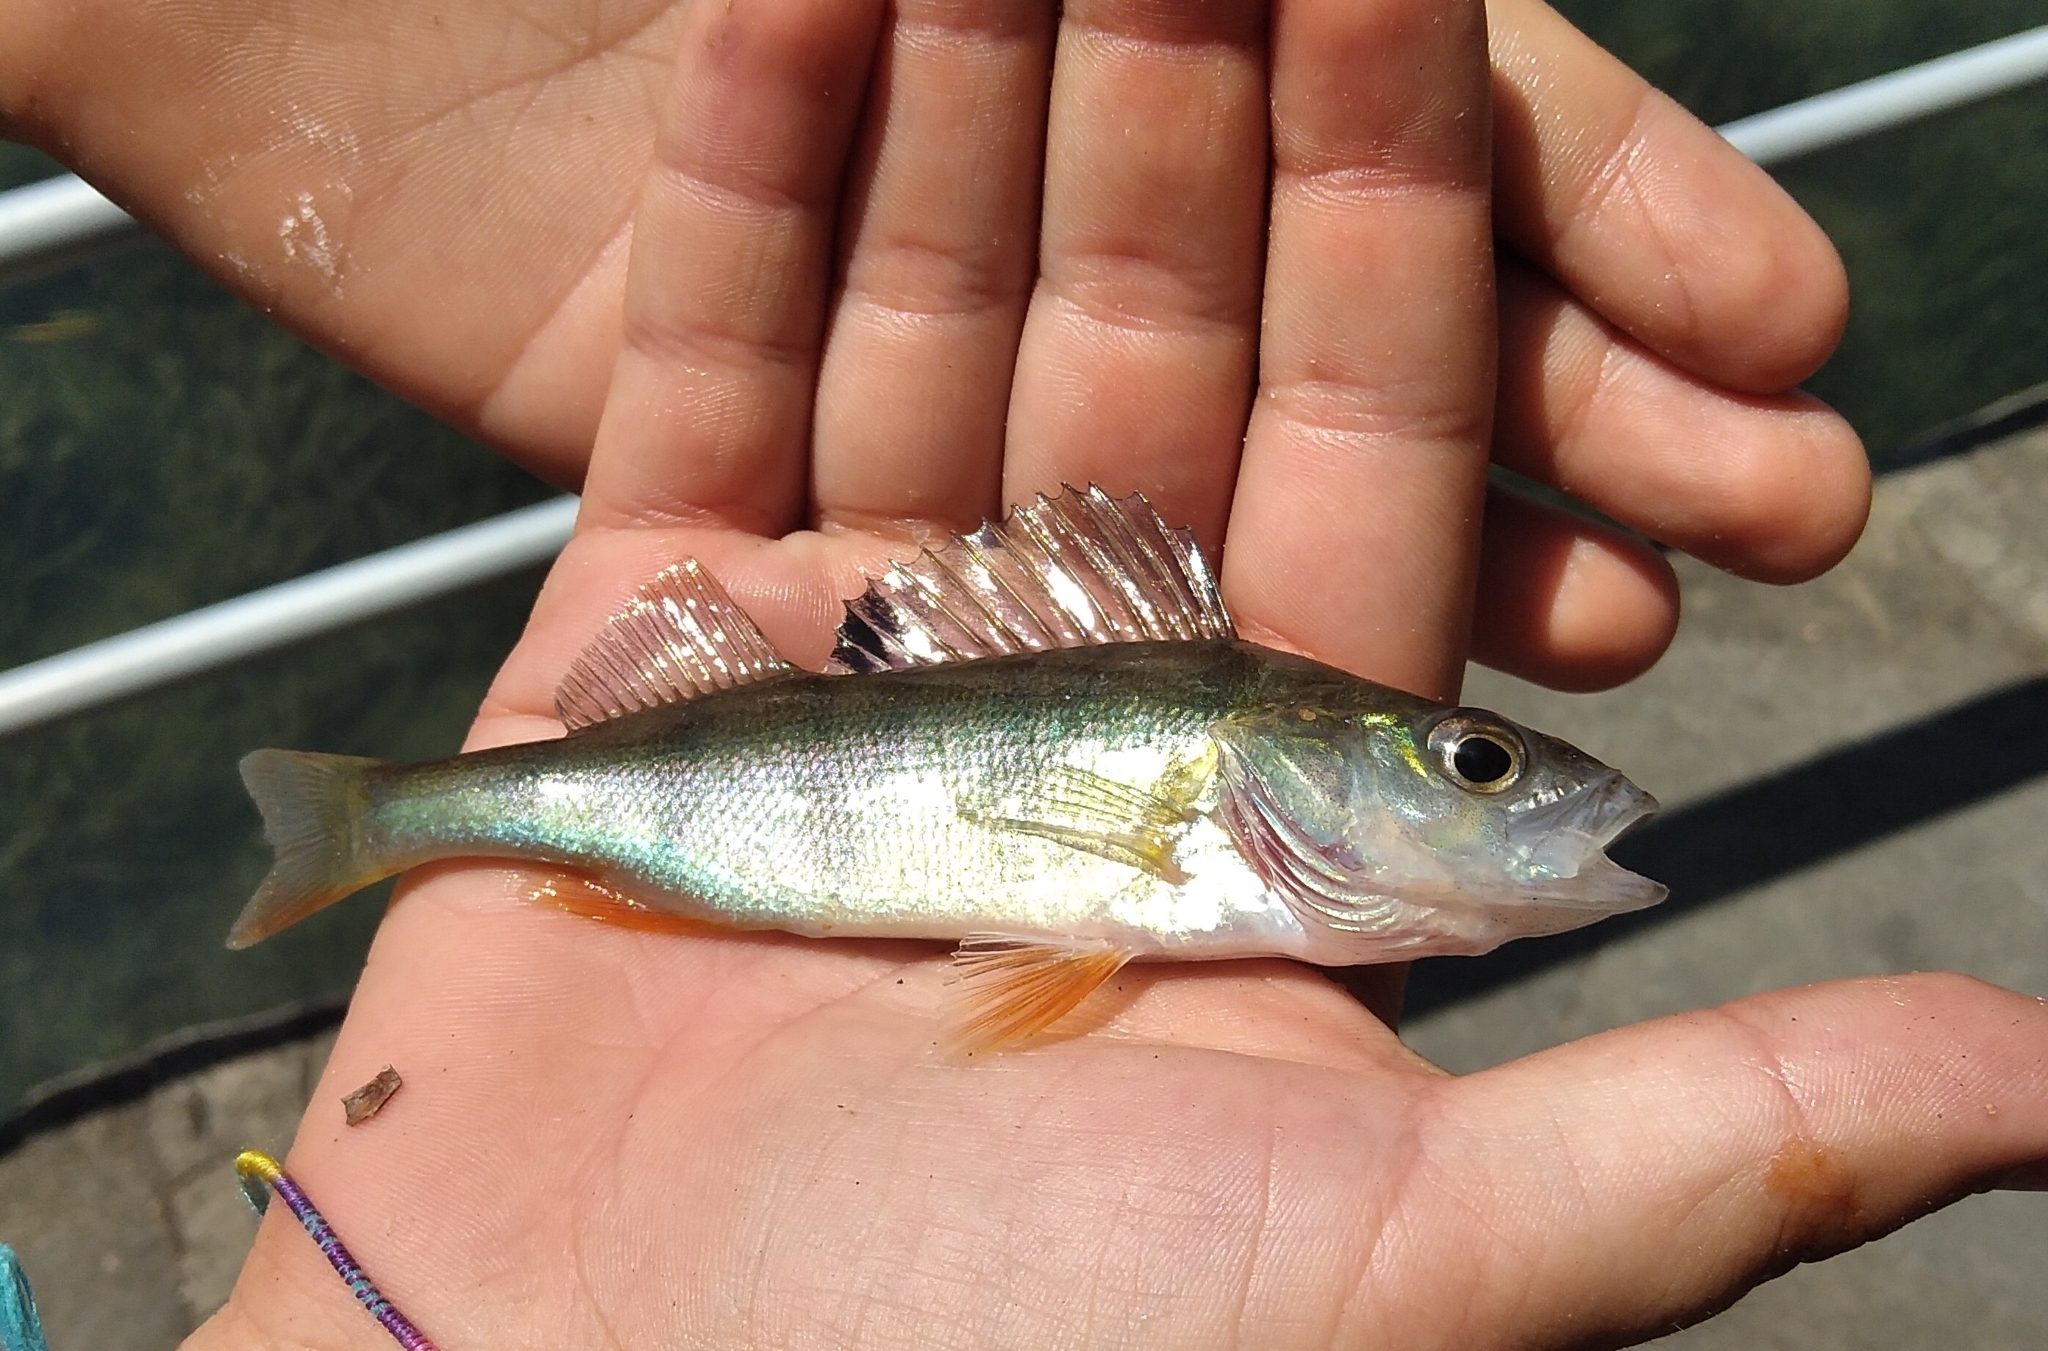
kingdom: Animalia
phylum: Chordata
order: Perciformes
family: Percidae
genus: Perca
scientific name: Perca fluviatilis
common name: Perch
